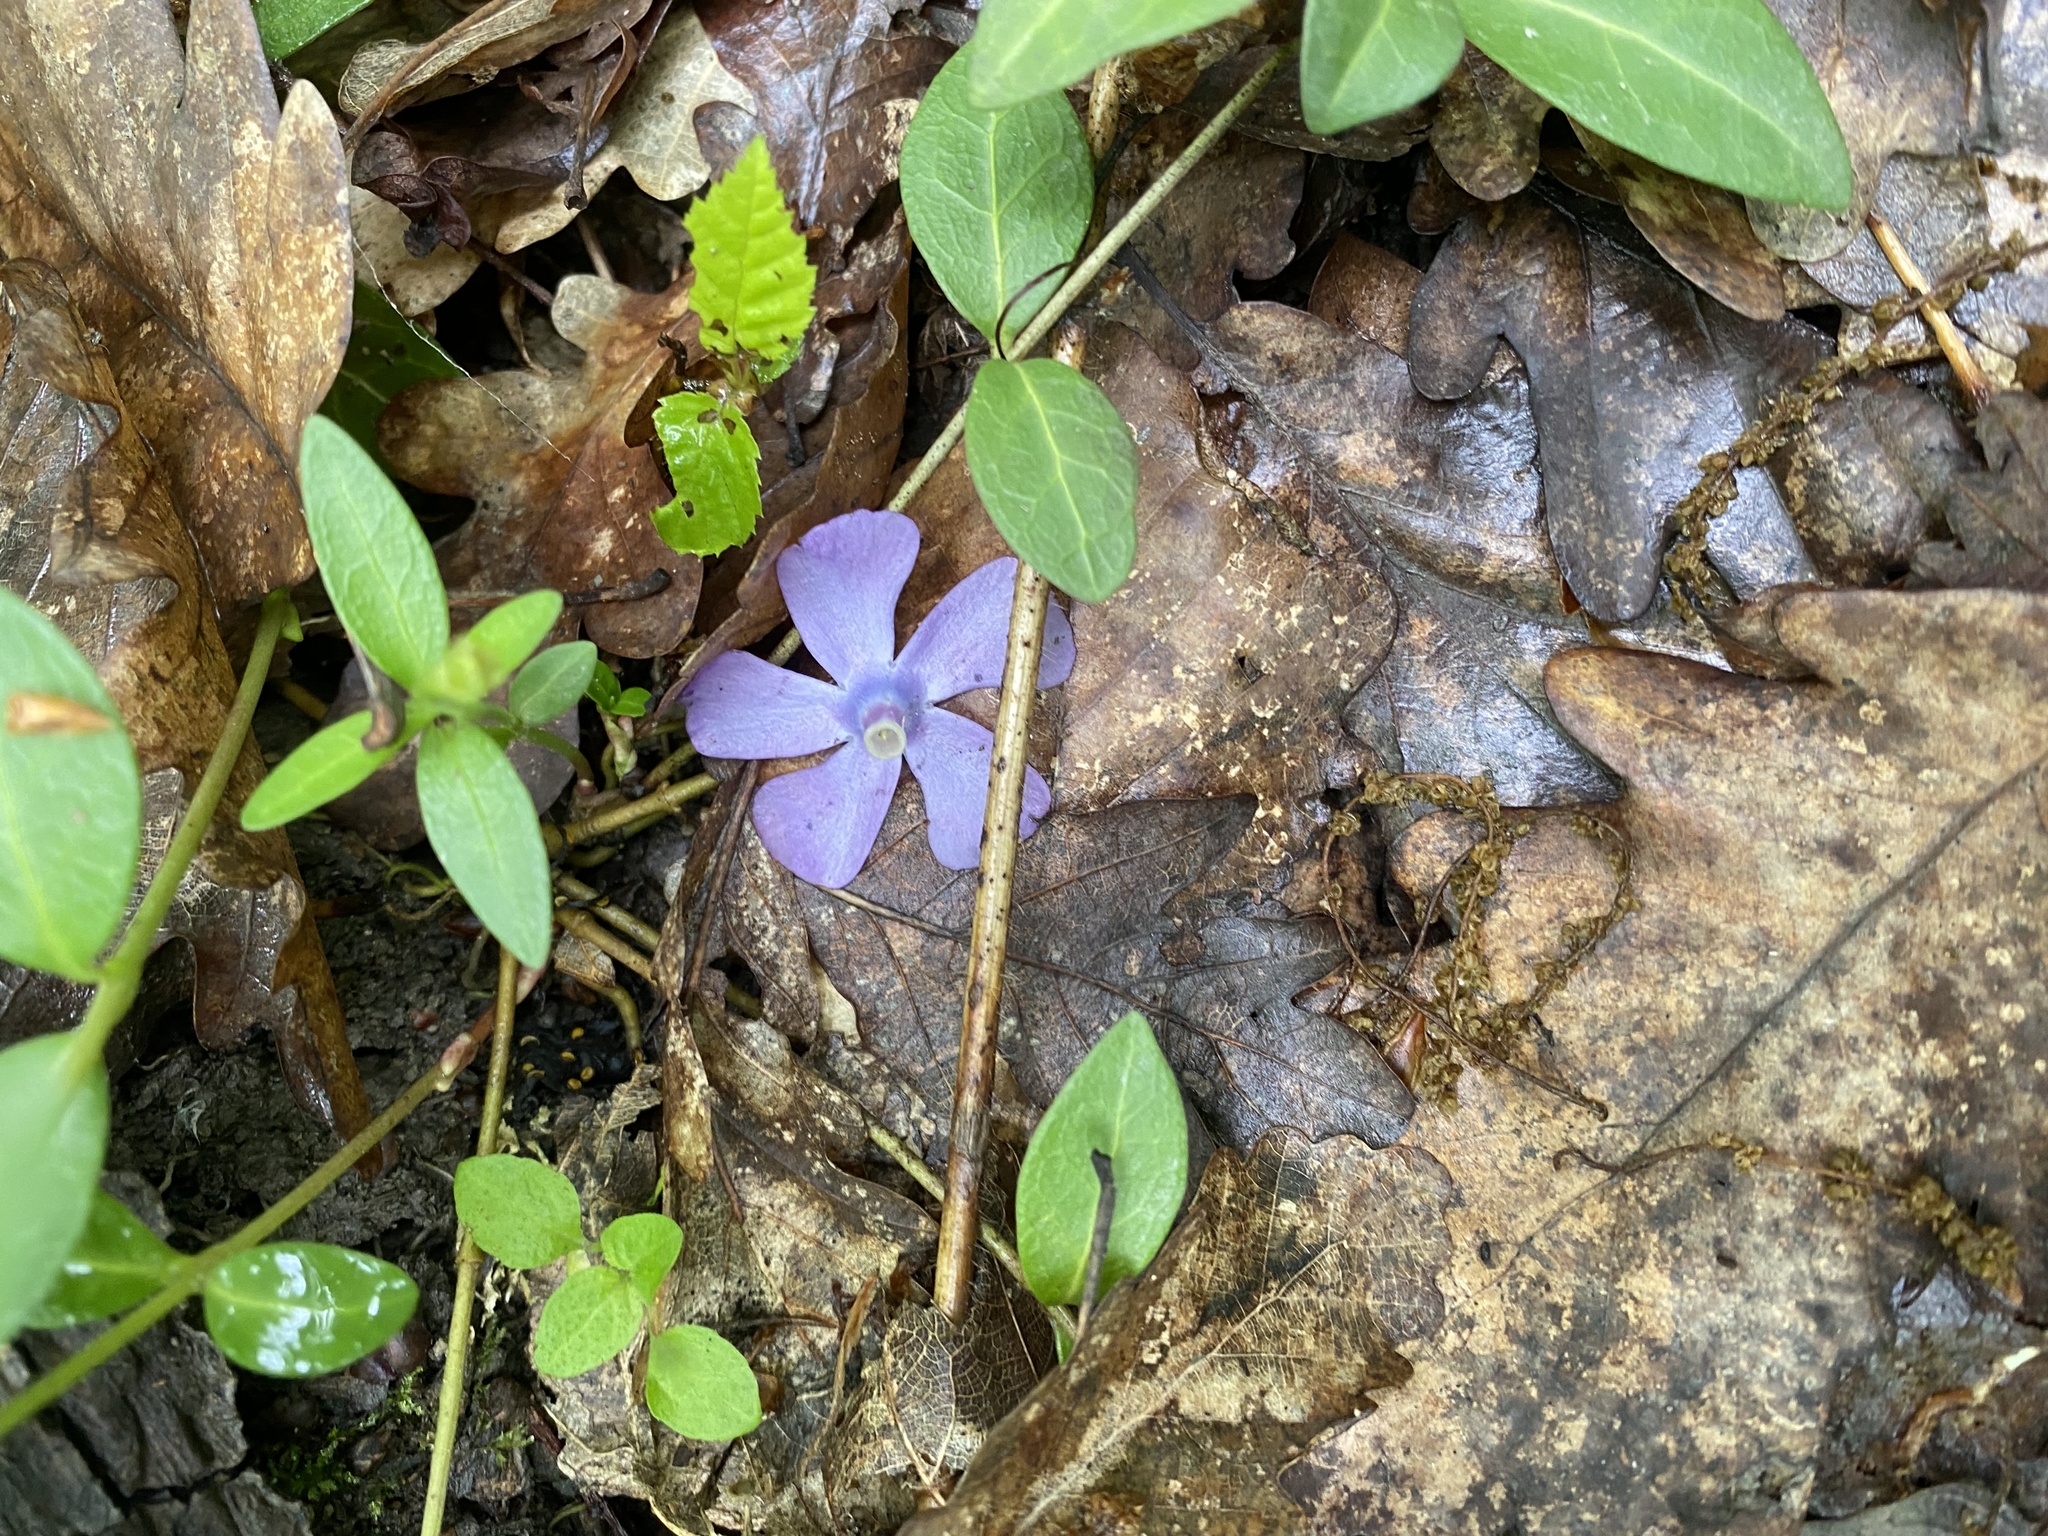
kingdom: Plantae
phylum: Tracheophyta
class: Magnoliopsida
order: Gentianales
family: Apocynaceae
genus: Vinca
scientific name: Vinca minor
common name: Lesser periwinkle
